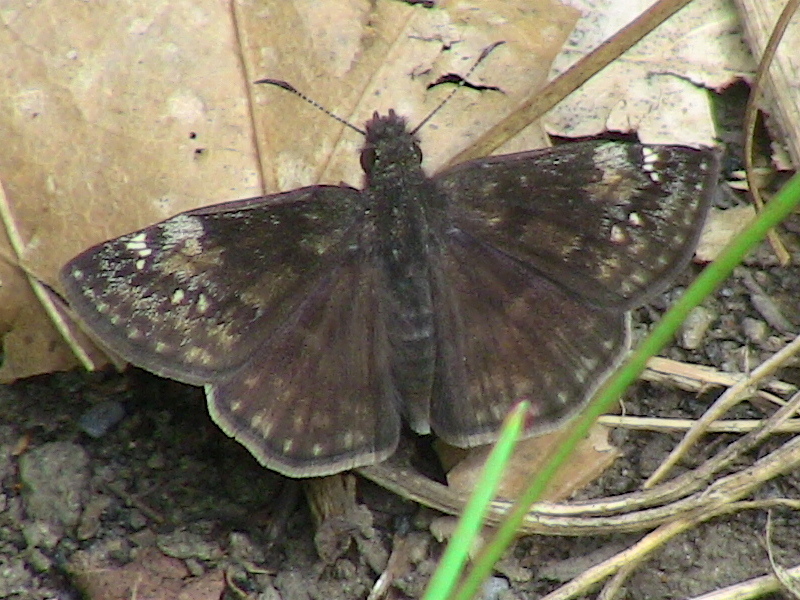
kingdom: Animalia
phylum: Arthropoda
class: Insecta
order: Lepidoptera
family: Hesperiidae
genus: Erynnis
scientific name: Erynnis baptisiae
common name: Wild indigo duskywing
